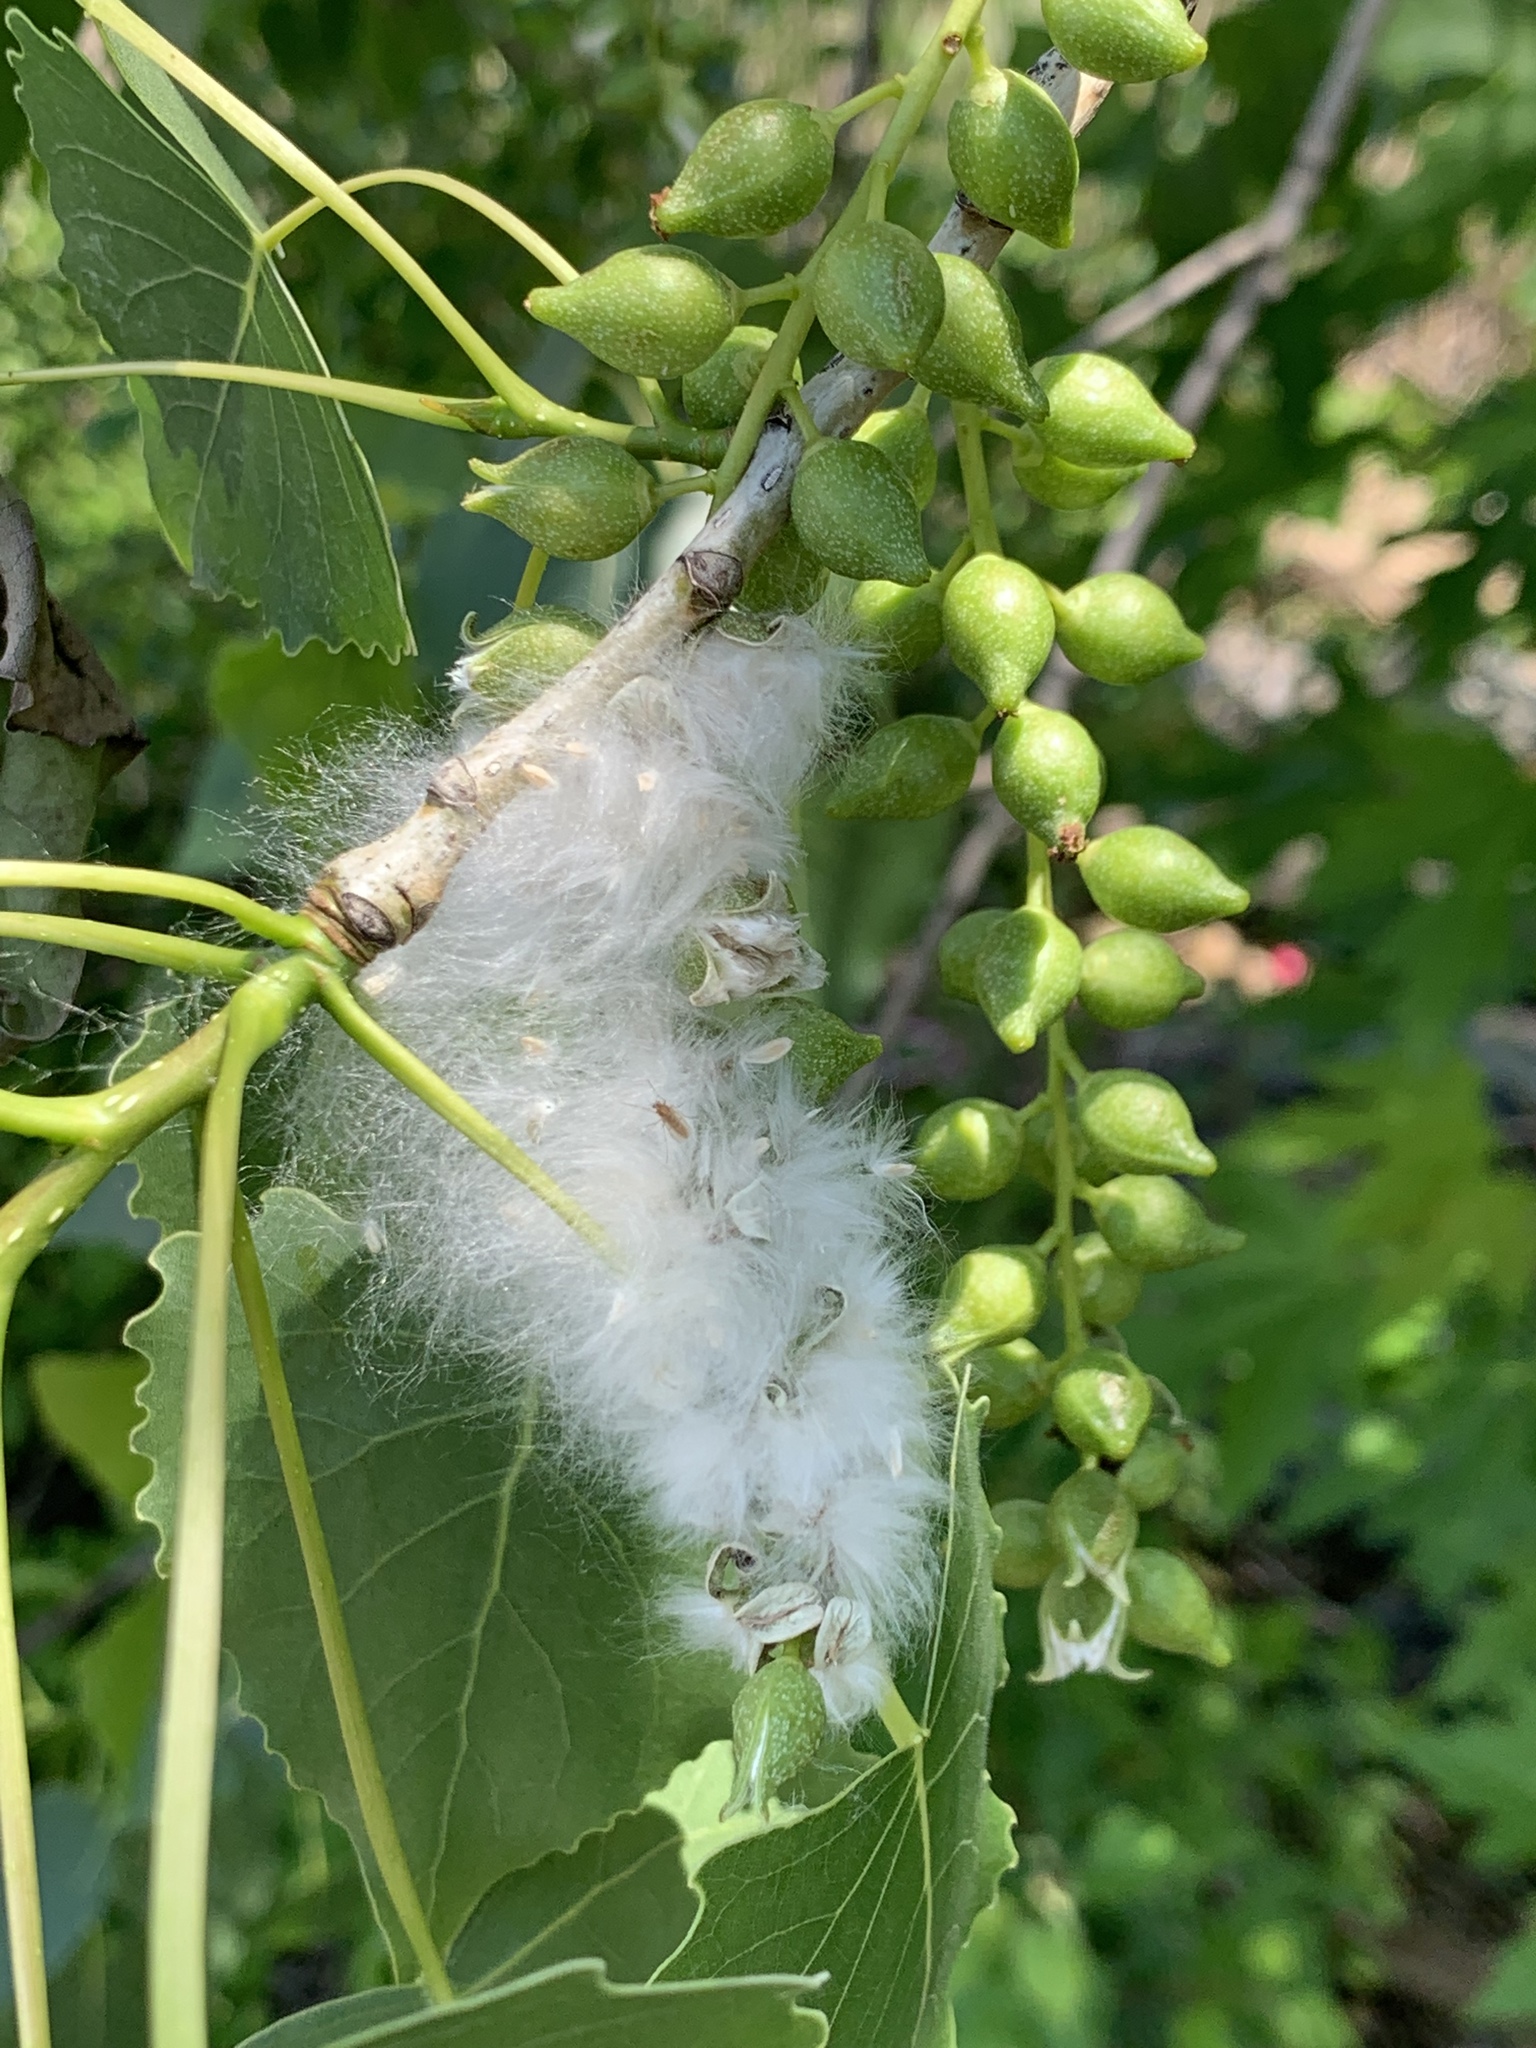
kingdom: Plantae
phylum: Tracheophyta
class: Magnoliopsida
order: Malpighiales
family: Salicaceae
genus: Populus
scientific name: Populus deltoides
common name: Eastern cottonwood
